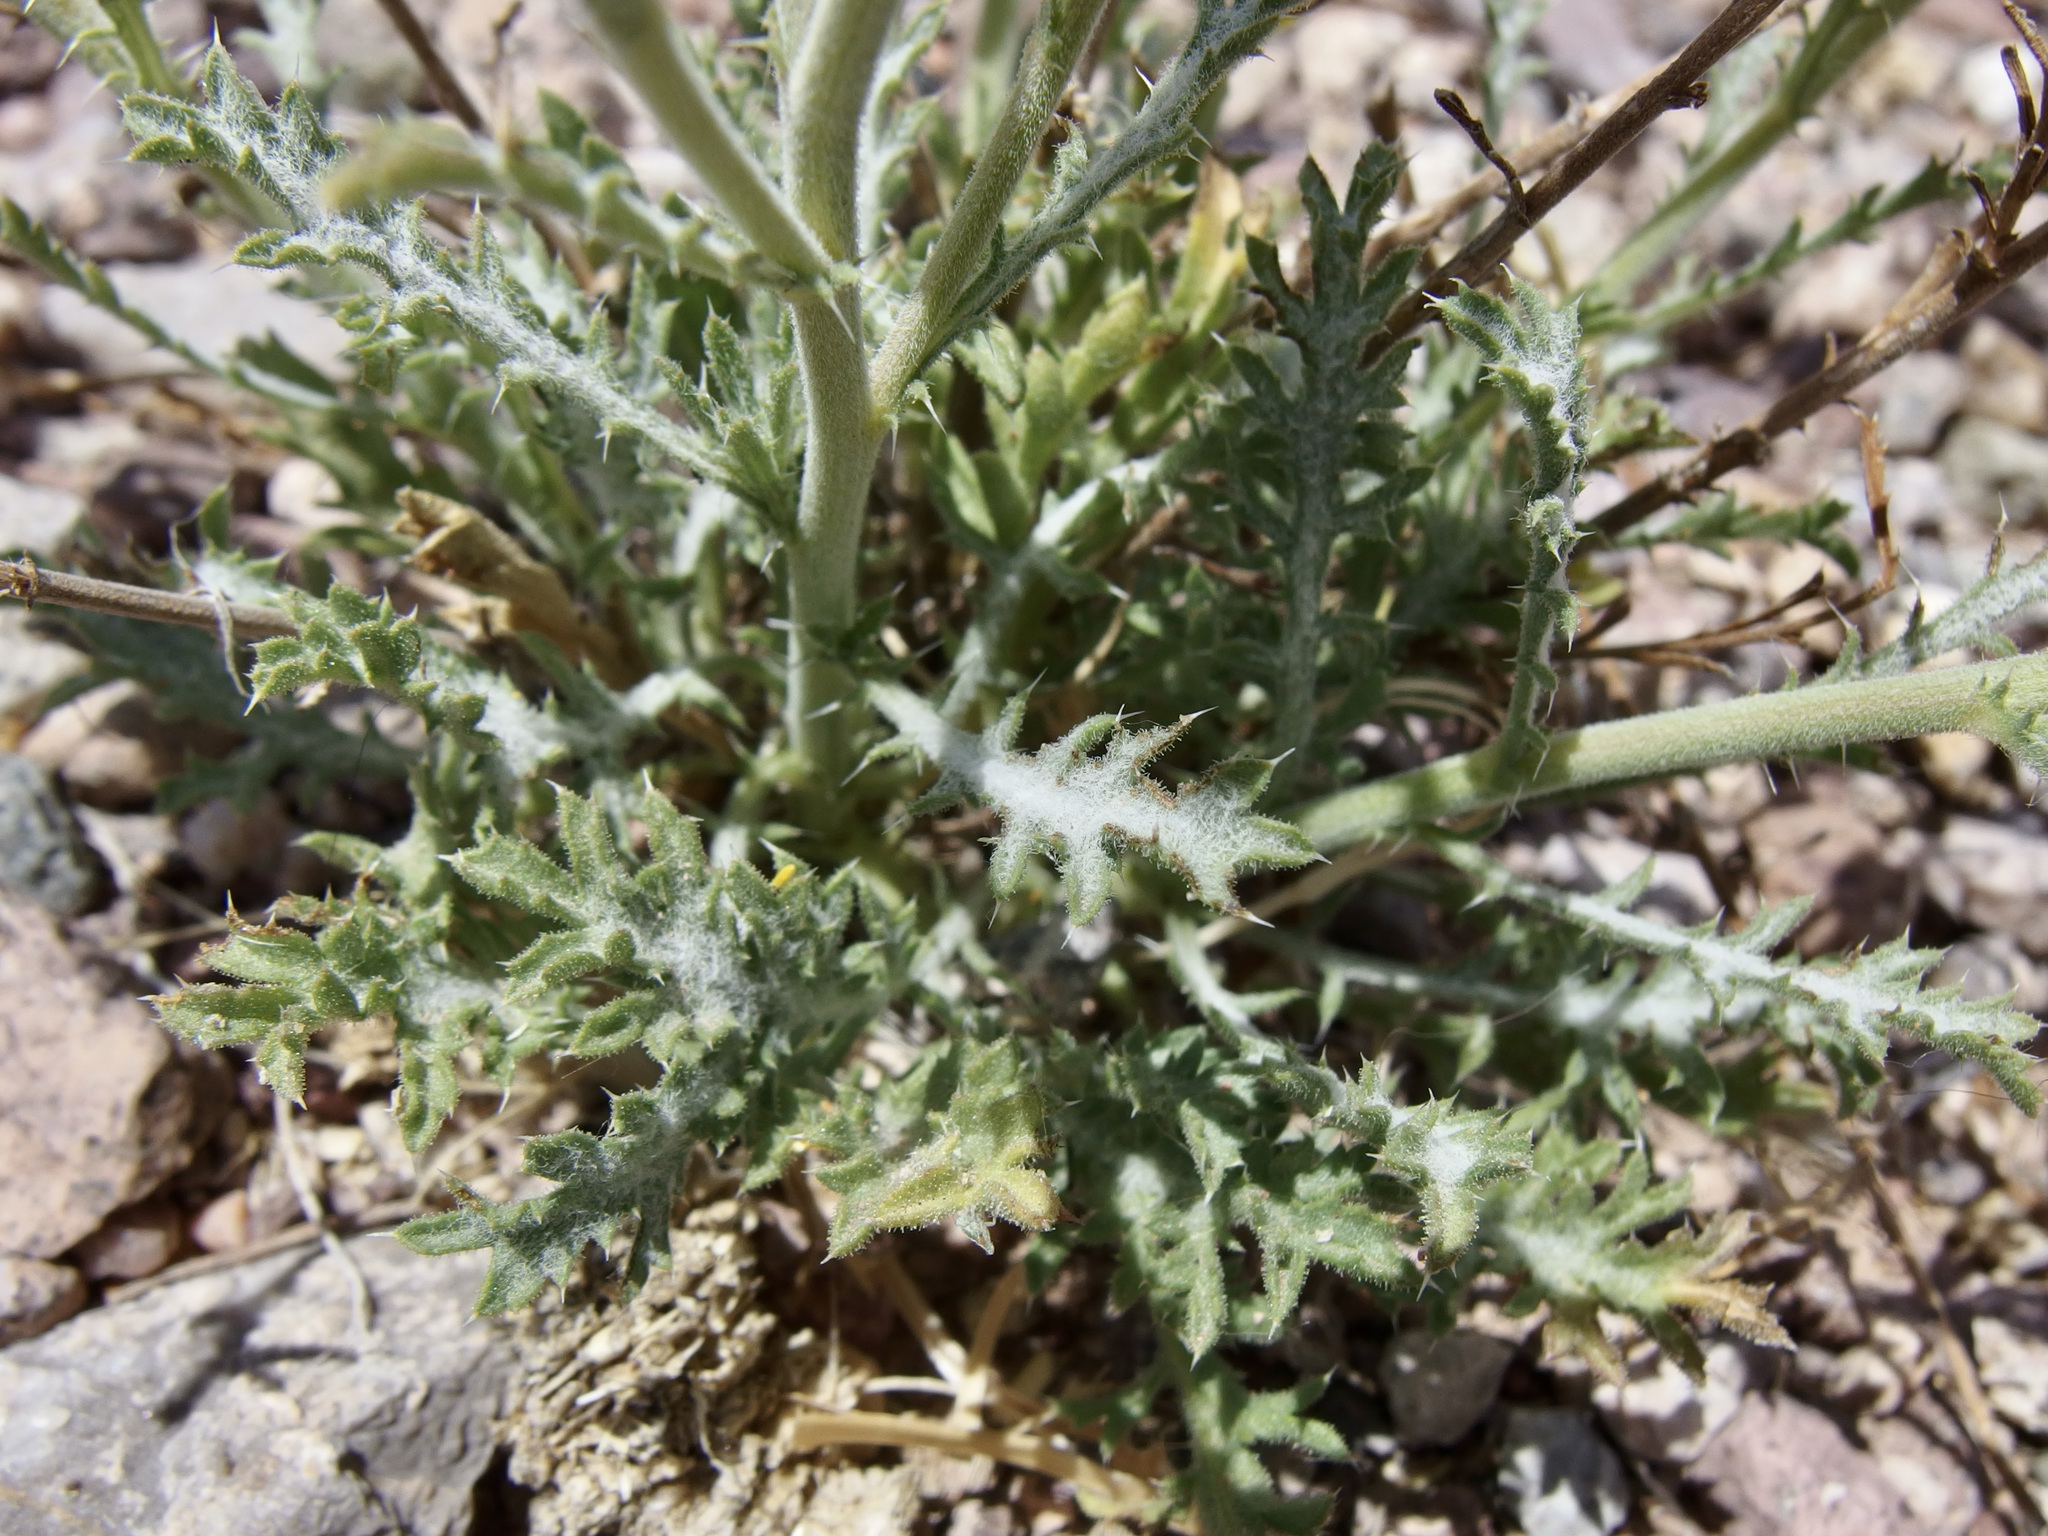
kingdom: Plantae
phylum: Tracheophyta
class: Magnoliopsida
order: Asterales
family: Asteraceae
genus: Xanthisma
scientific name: Xanthisma spinulosum
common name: Spiny goldenweed
